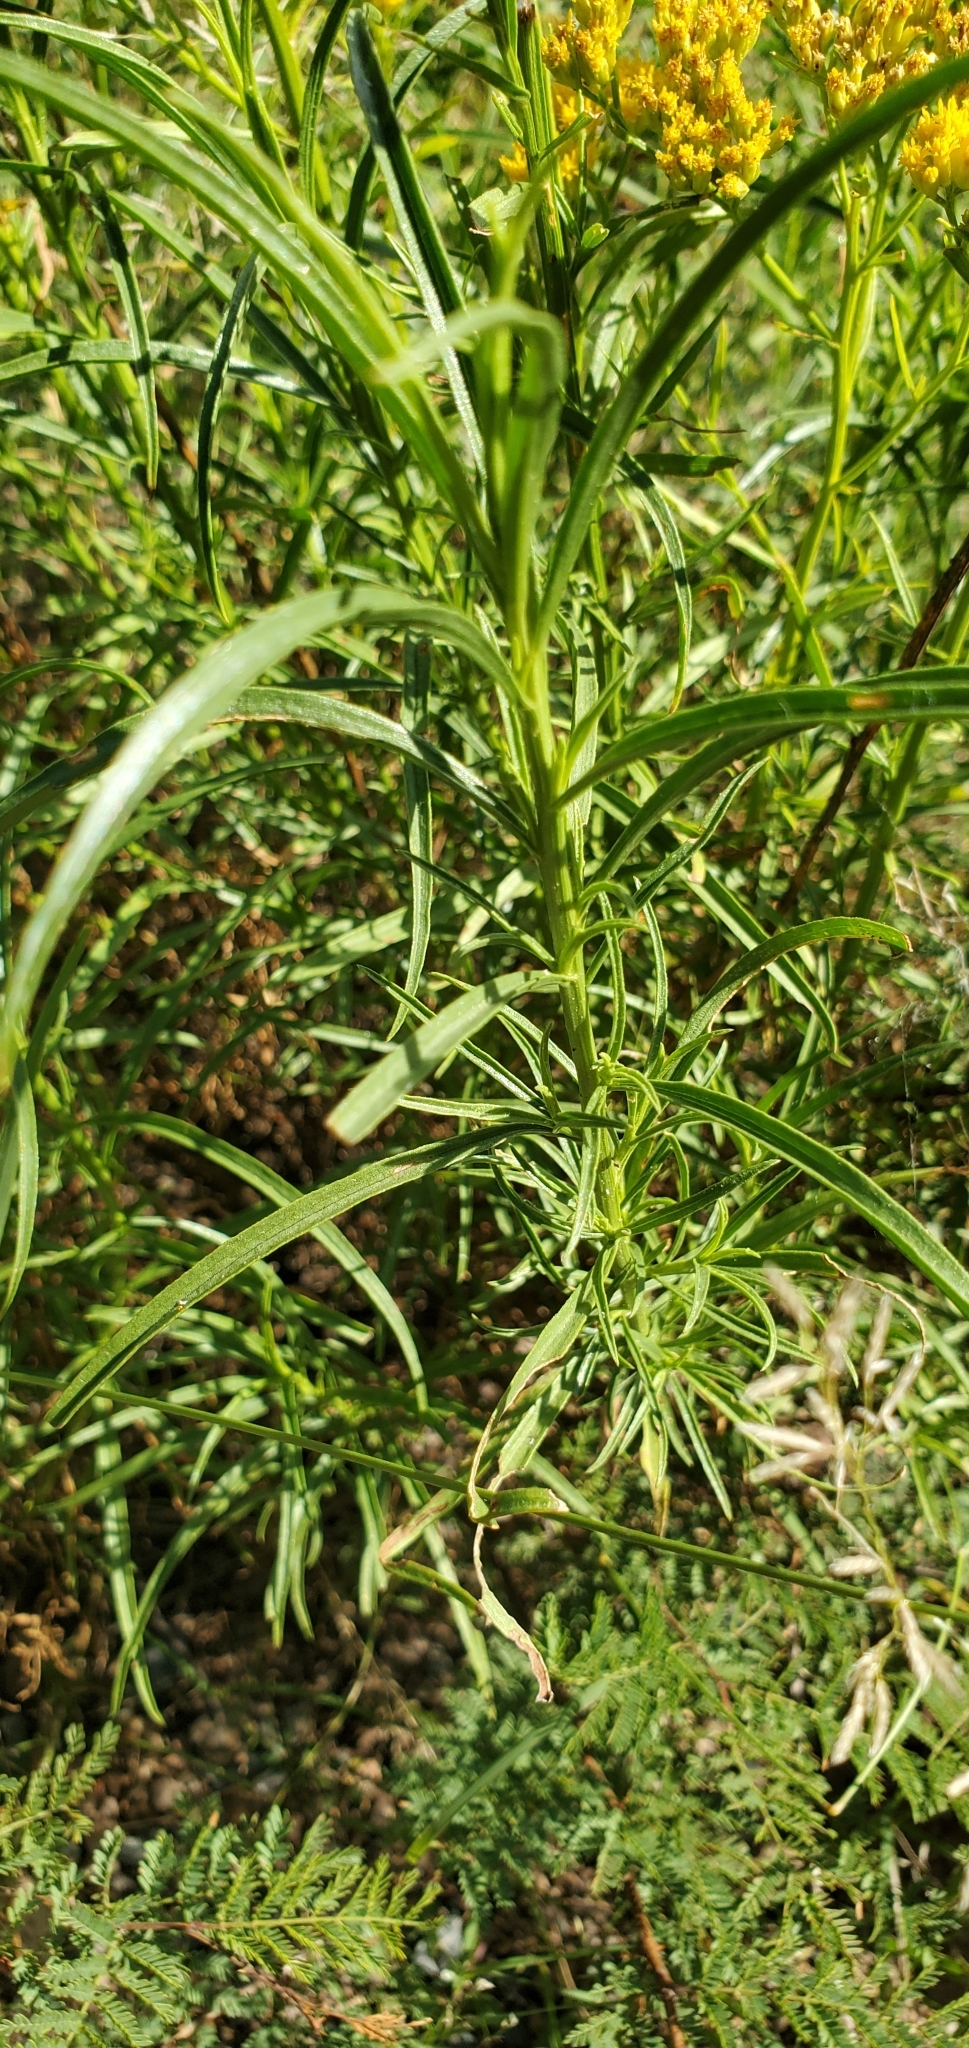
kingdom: Plantae
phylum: Tracheophyta
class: Magnoliopsida
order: Asterales
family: Asteraceae
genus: Gymnosperma
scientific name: Gymnosperma glutinosum
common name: Gumhead
